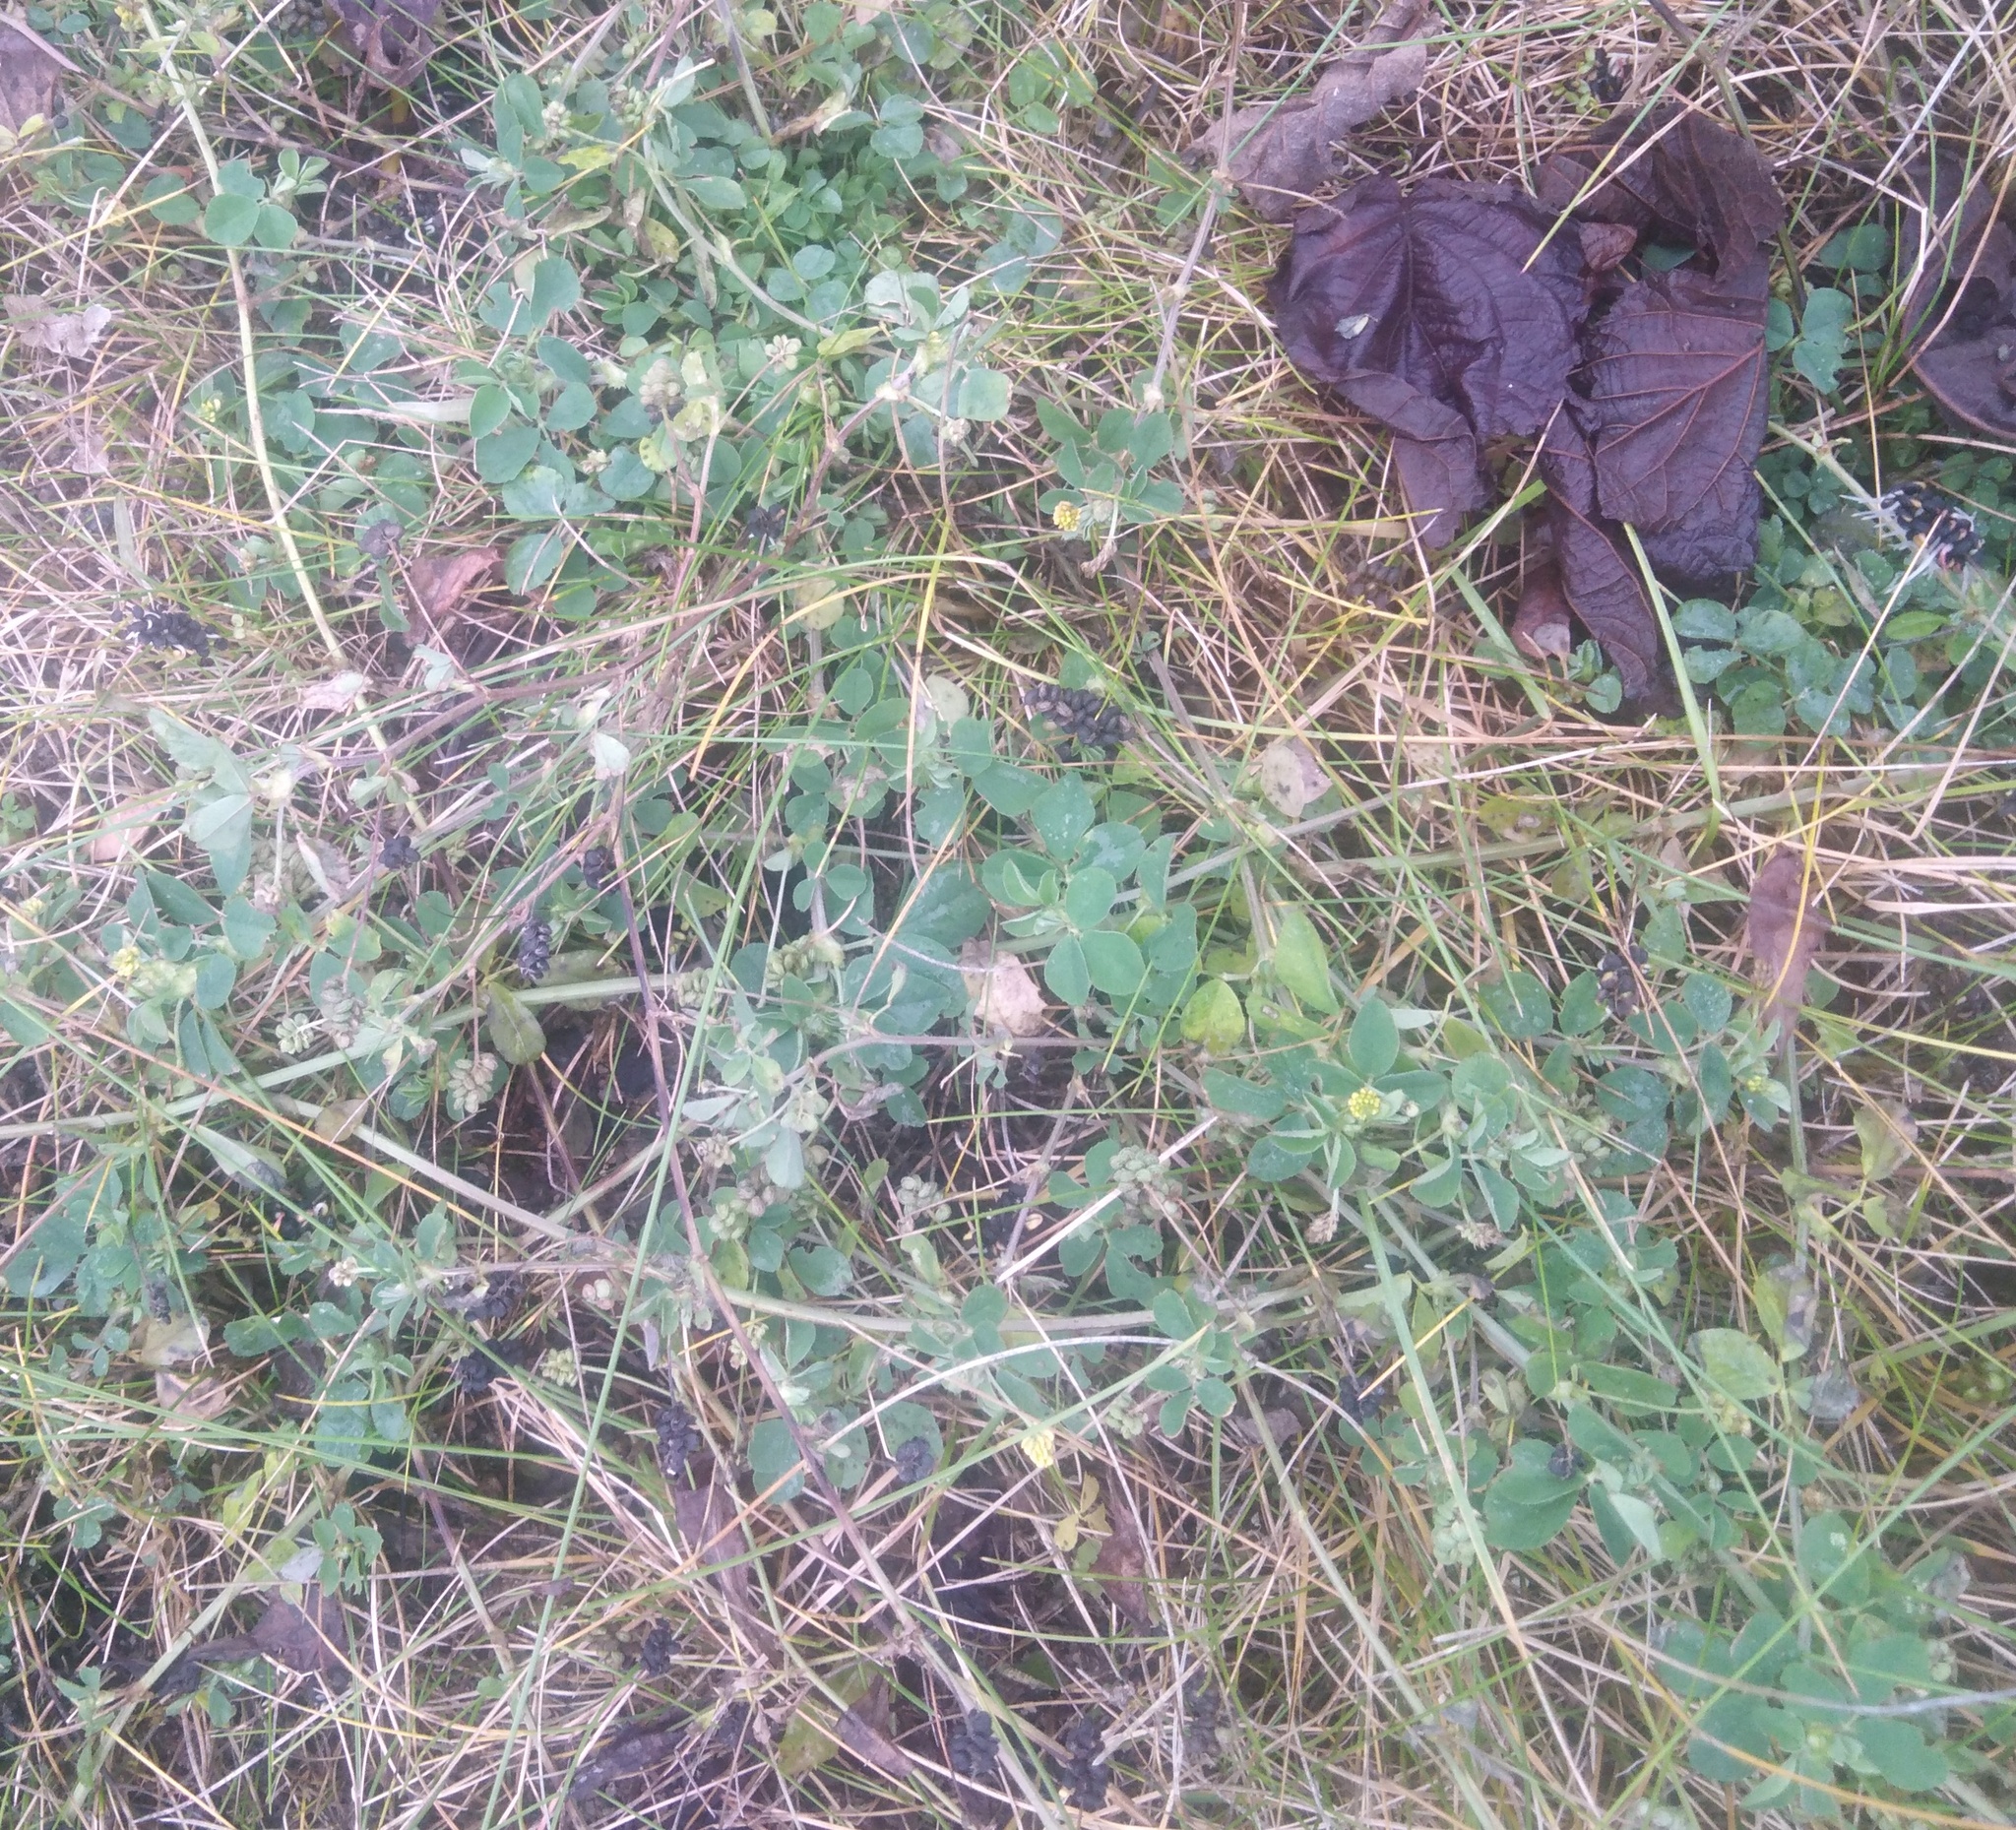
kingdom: Plantae
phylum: Tracheophyta
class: Magnoliopsida
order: Fabales
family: Fabaceae
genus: Medicago
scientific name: Medicago lupulina
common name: Black medick
